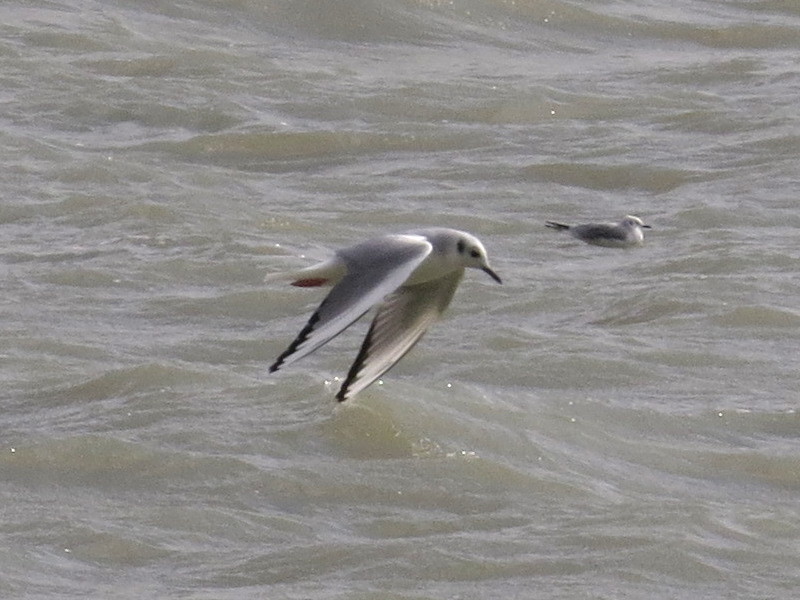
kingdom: Animalia
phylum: Chordata
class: Aves
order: Charadriiformes
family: Laridae
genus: Chroicocephalus
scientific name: Chroicocephalus philadelphia
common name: Bonaparte's gull
